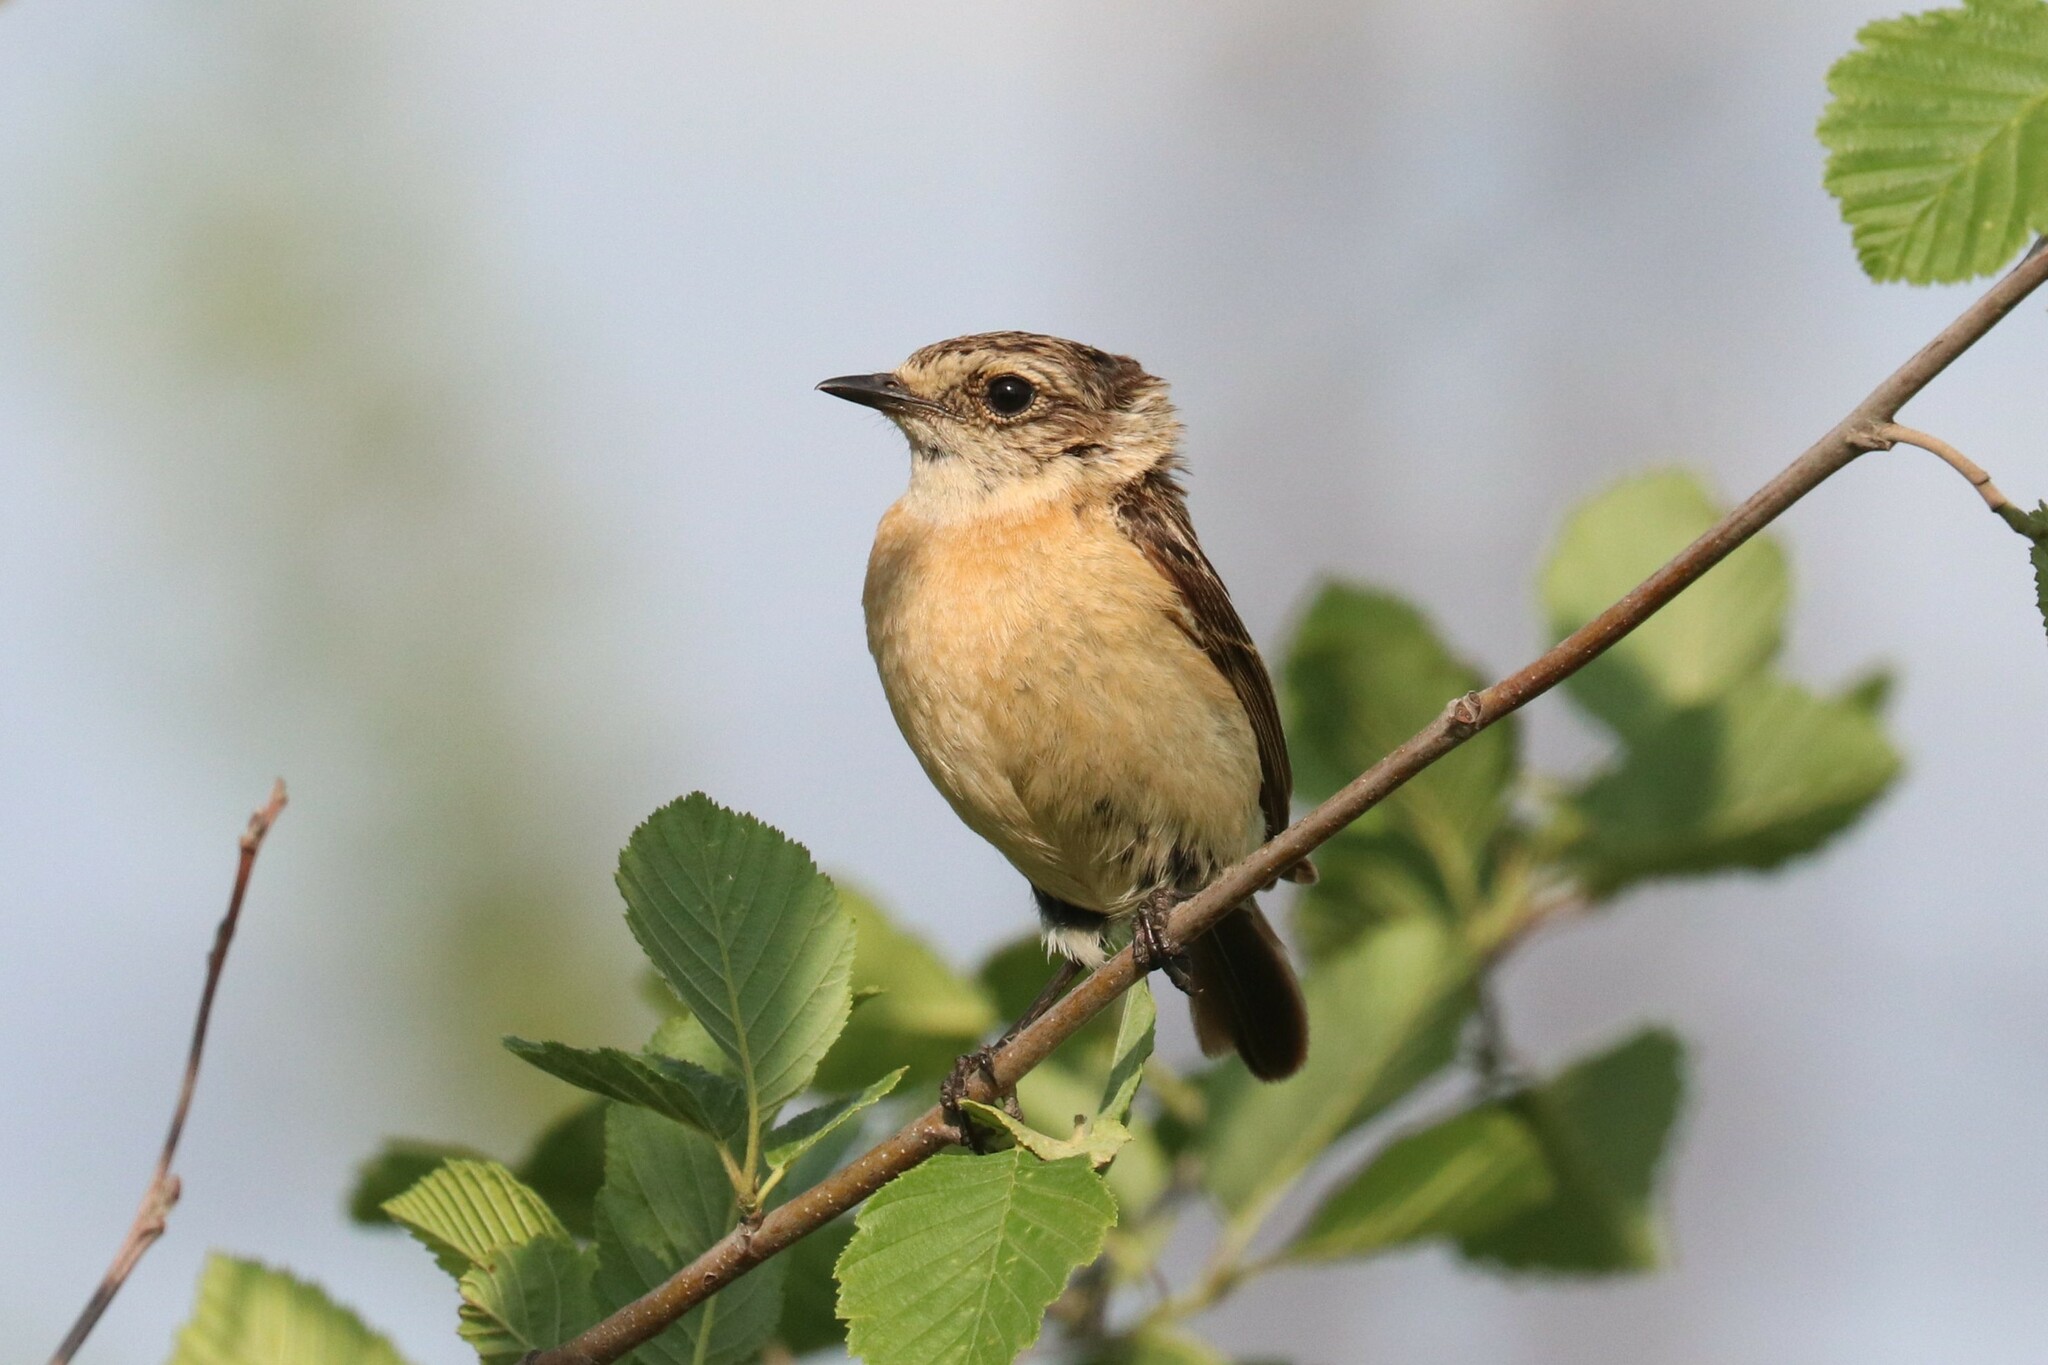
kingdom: Animalia
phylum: Chordata
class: Aves
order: Passeriformes
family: Muscicapidae
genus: Saxicola
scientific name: Saxicola maurus
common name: Siberian stonechat
